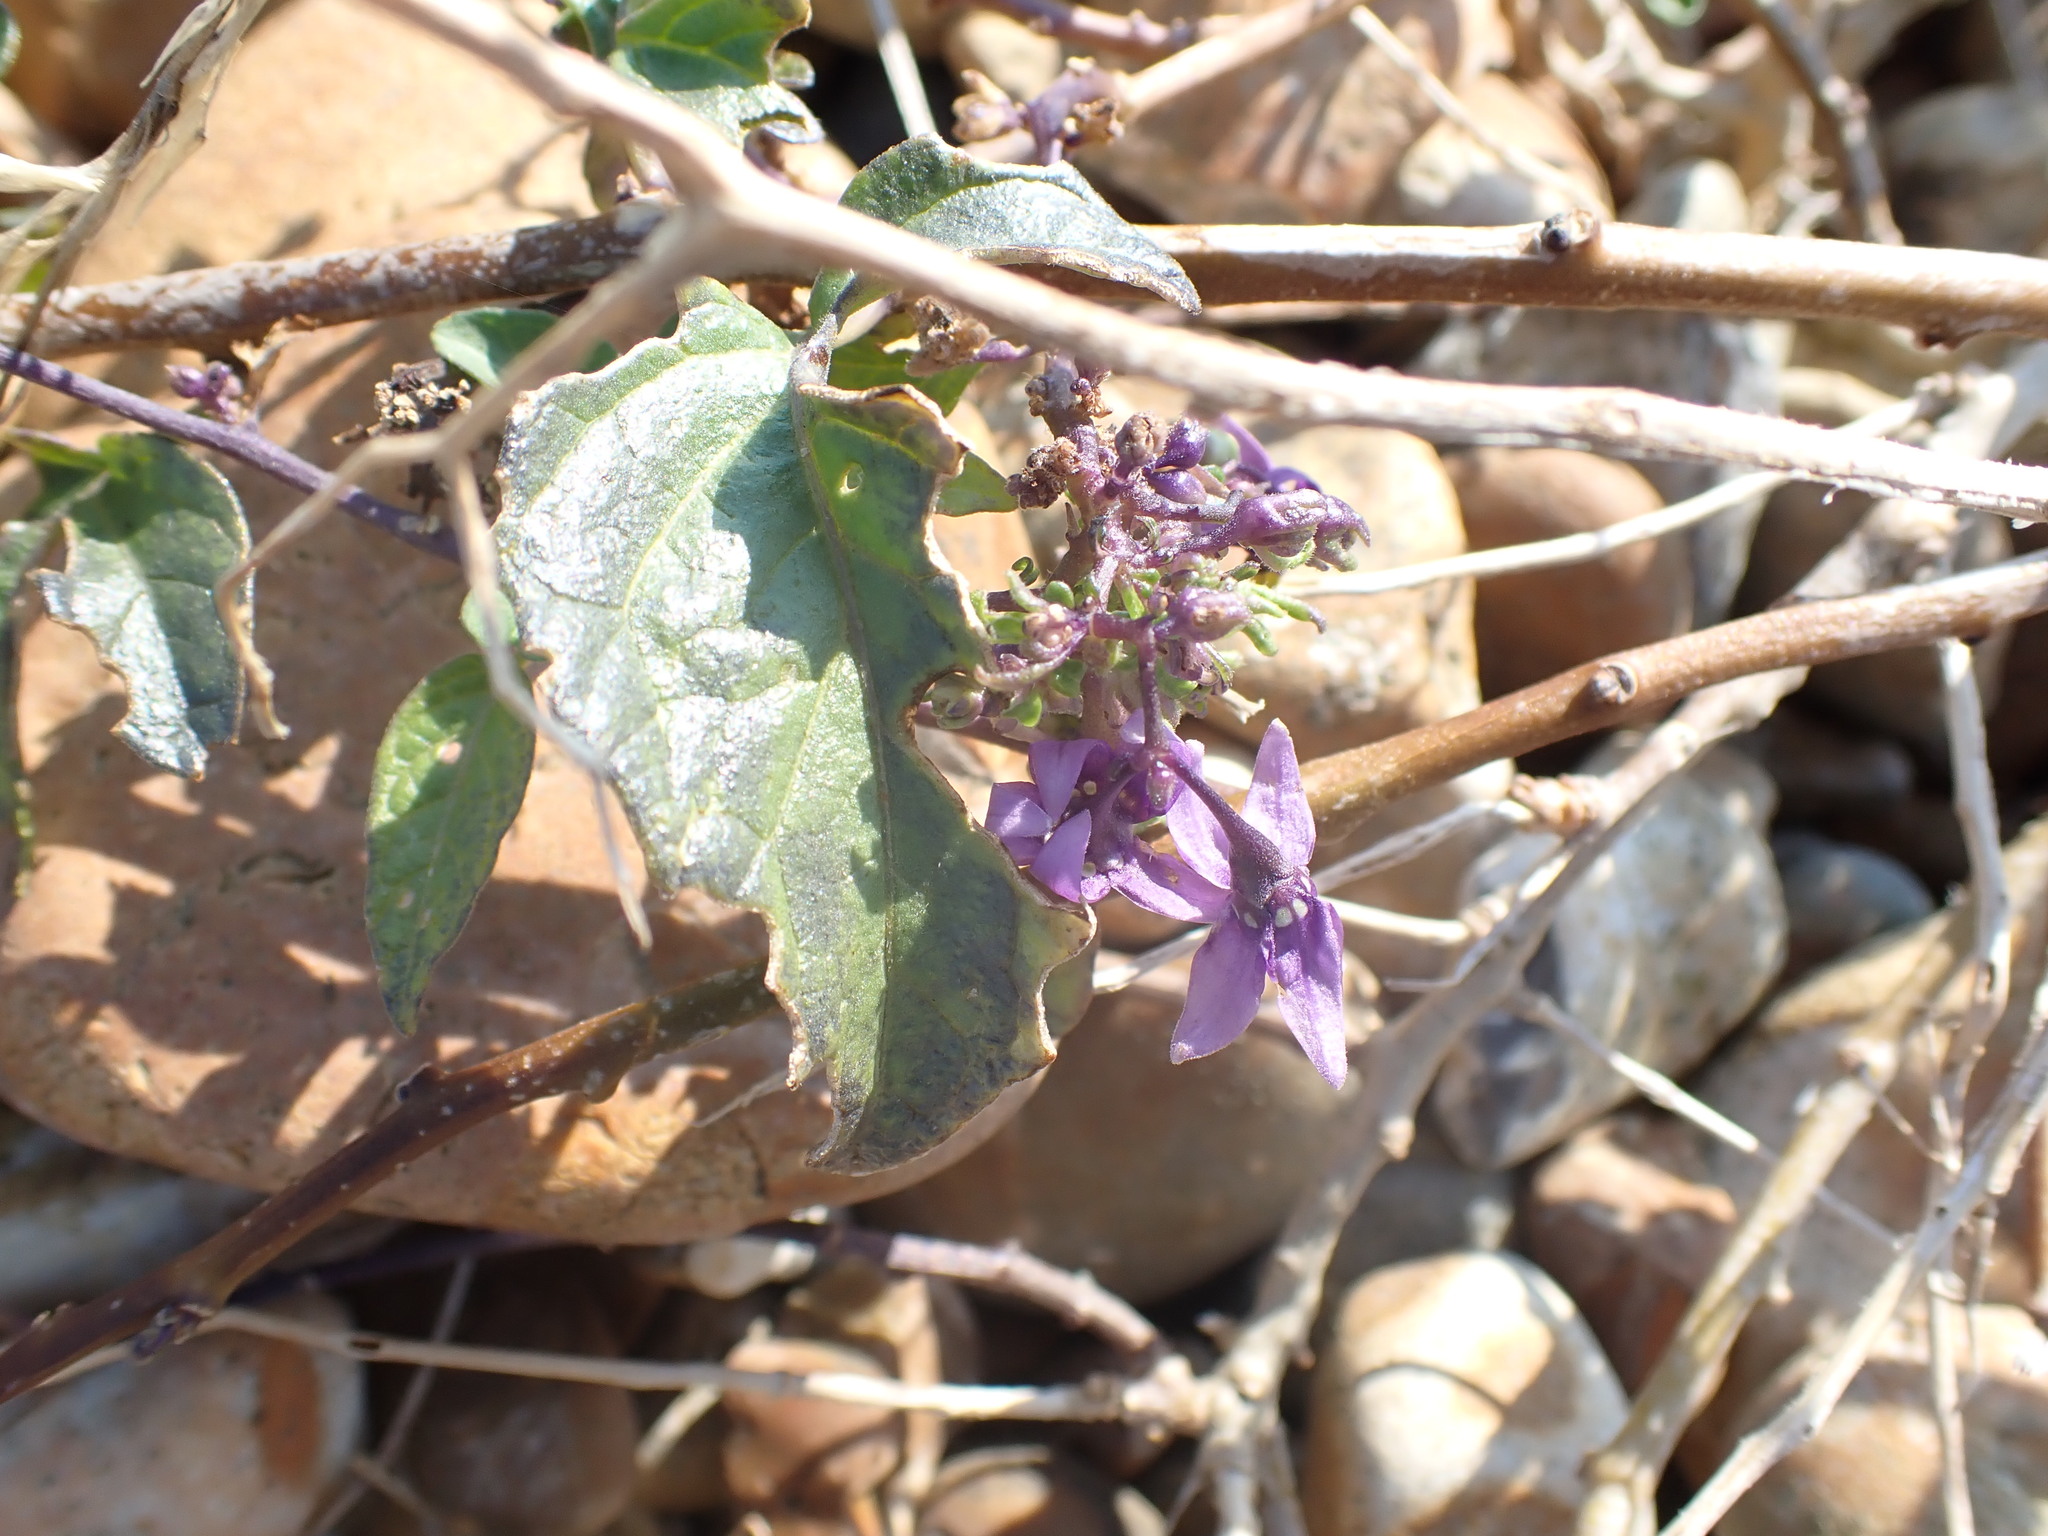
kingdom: Plantae
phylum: Tracheophyta
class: Magnoliopsida
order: Solanales
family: Solanaceae
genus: Solanum
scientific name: Solanum dulcamara
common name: Climbing nightshade
